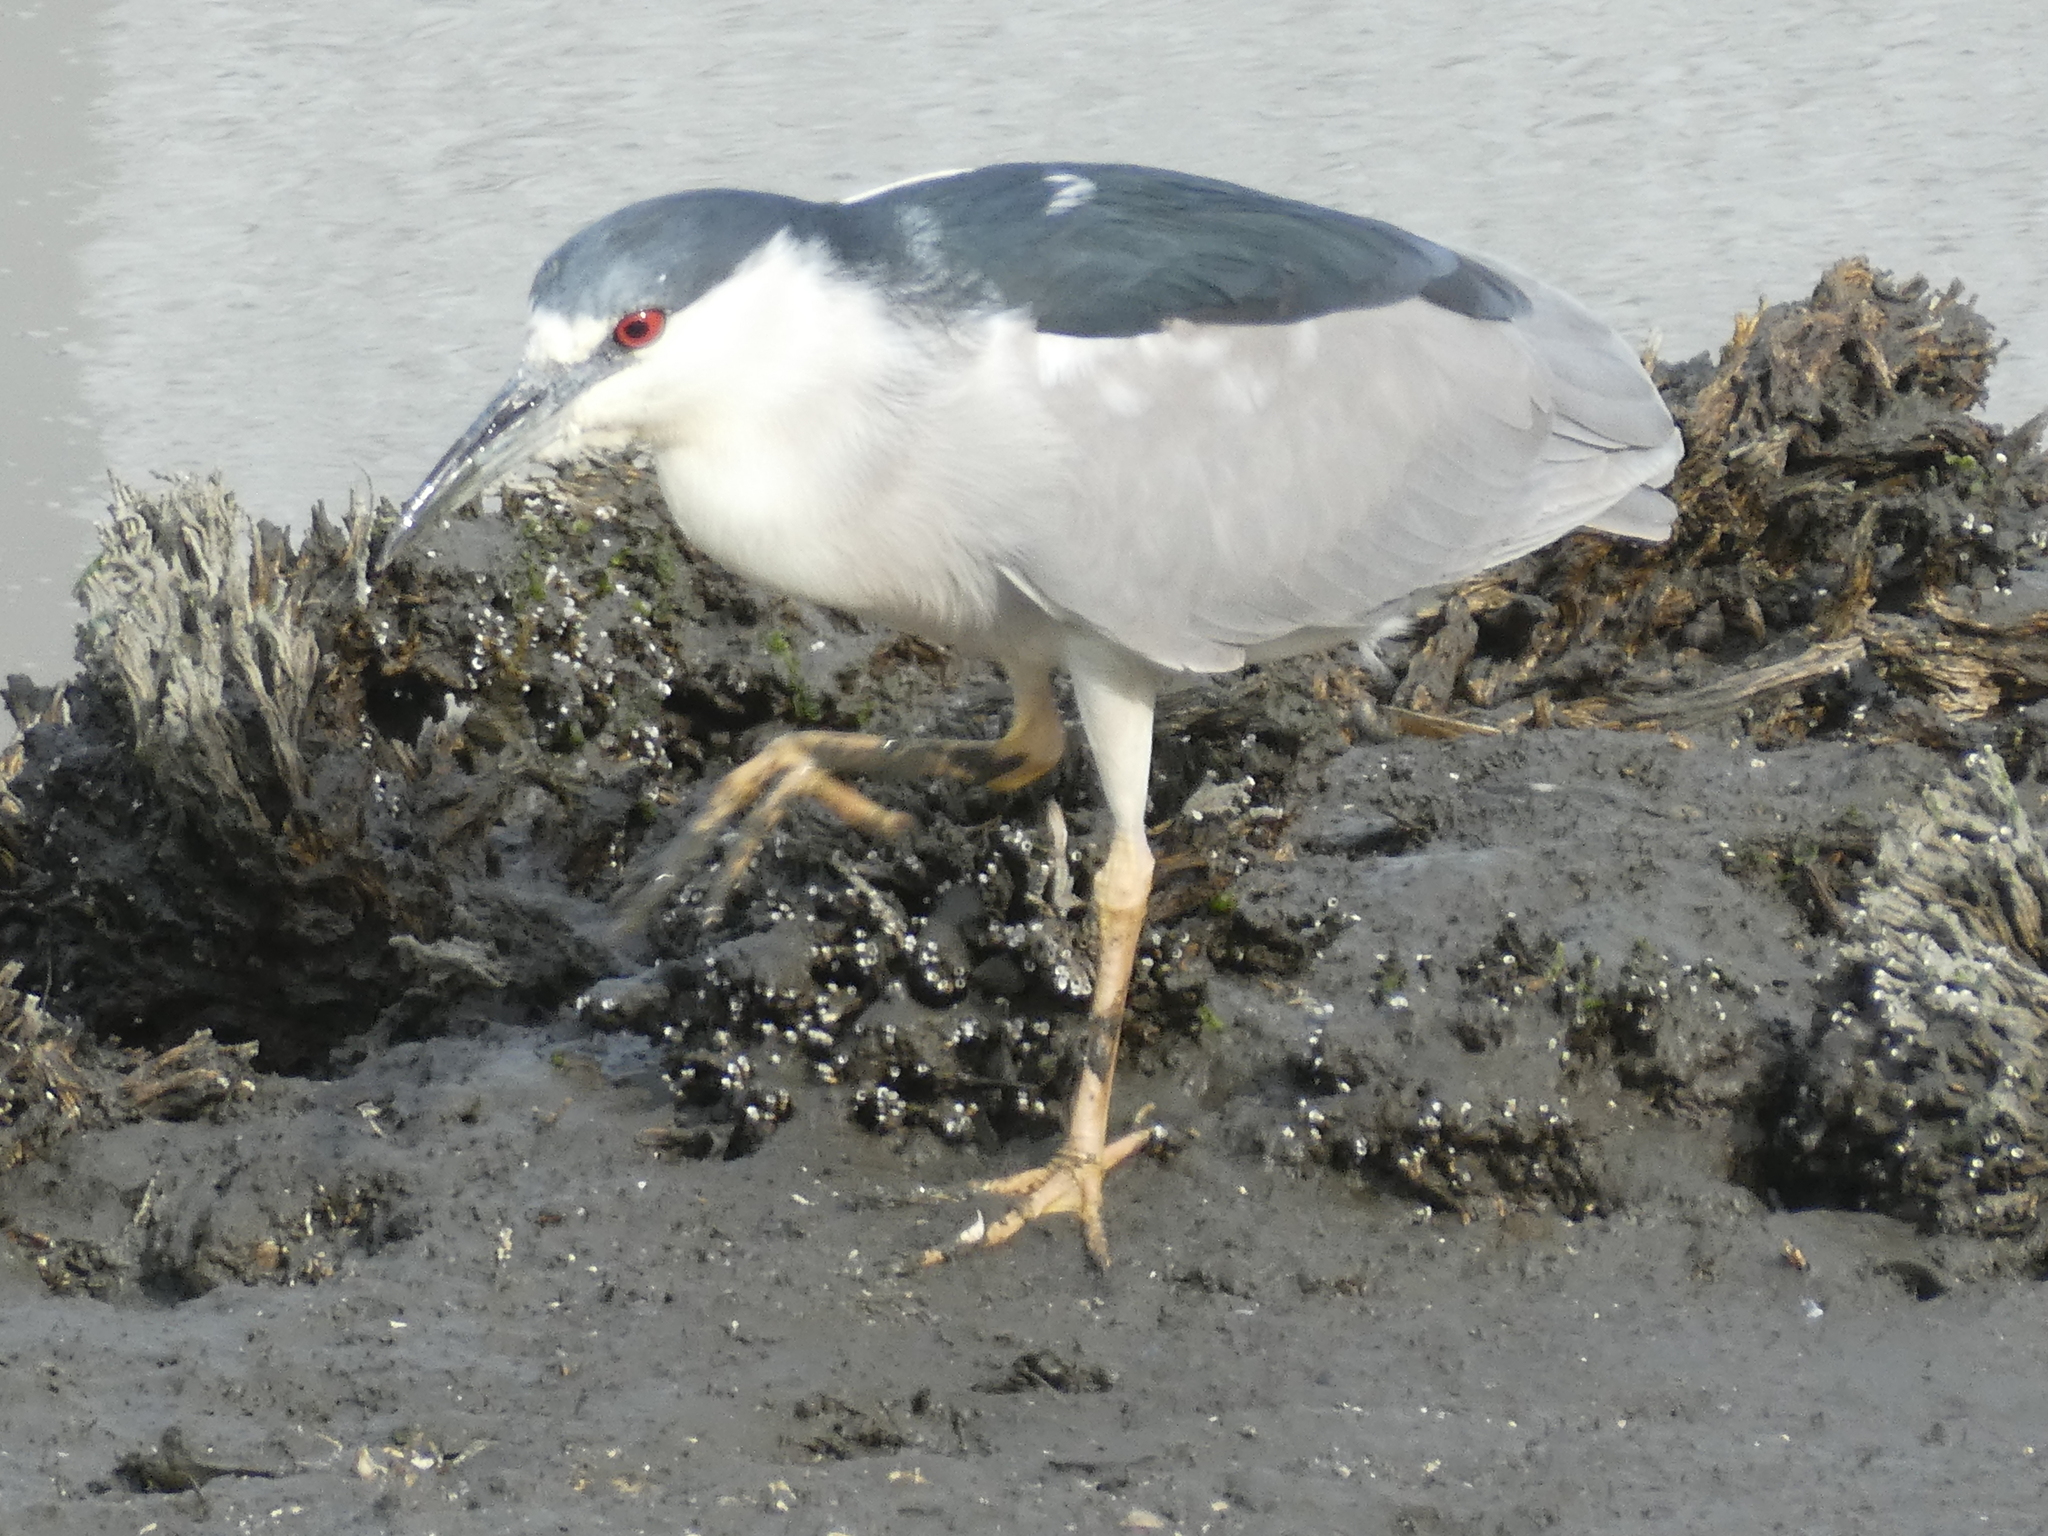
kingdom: Animalia
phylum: Chordata
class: Aves
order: Pelecaniformes
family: Ardeidae
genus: Nycticorax
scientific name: Nycticorax nycticorax
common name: Black-crowned night heron
